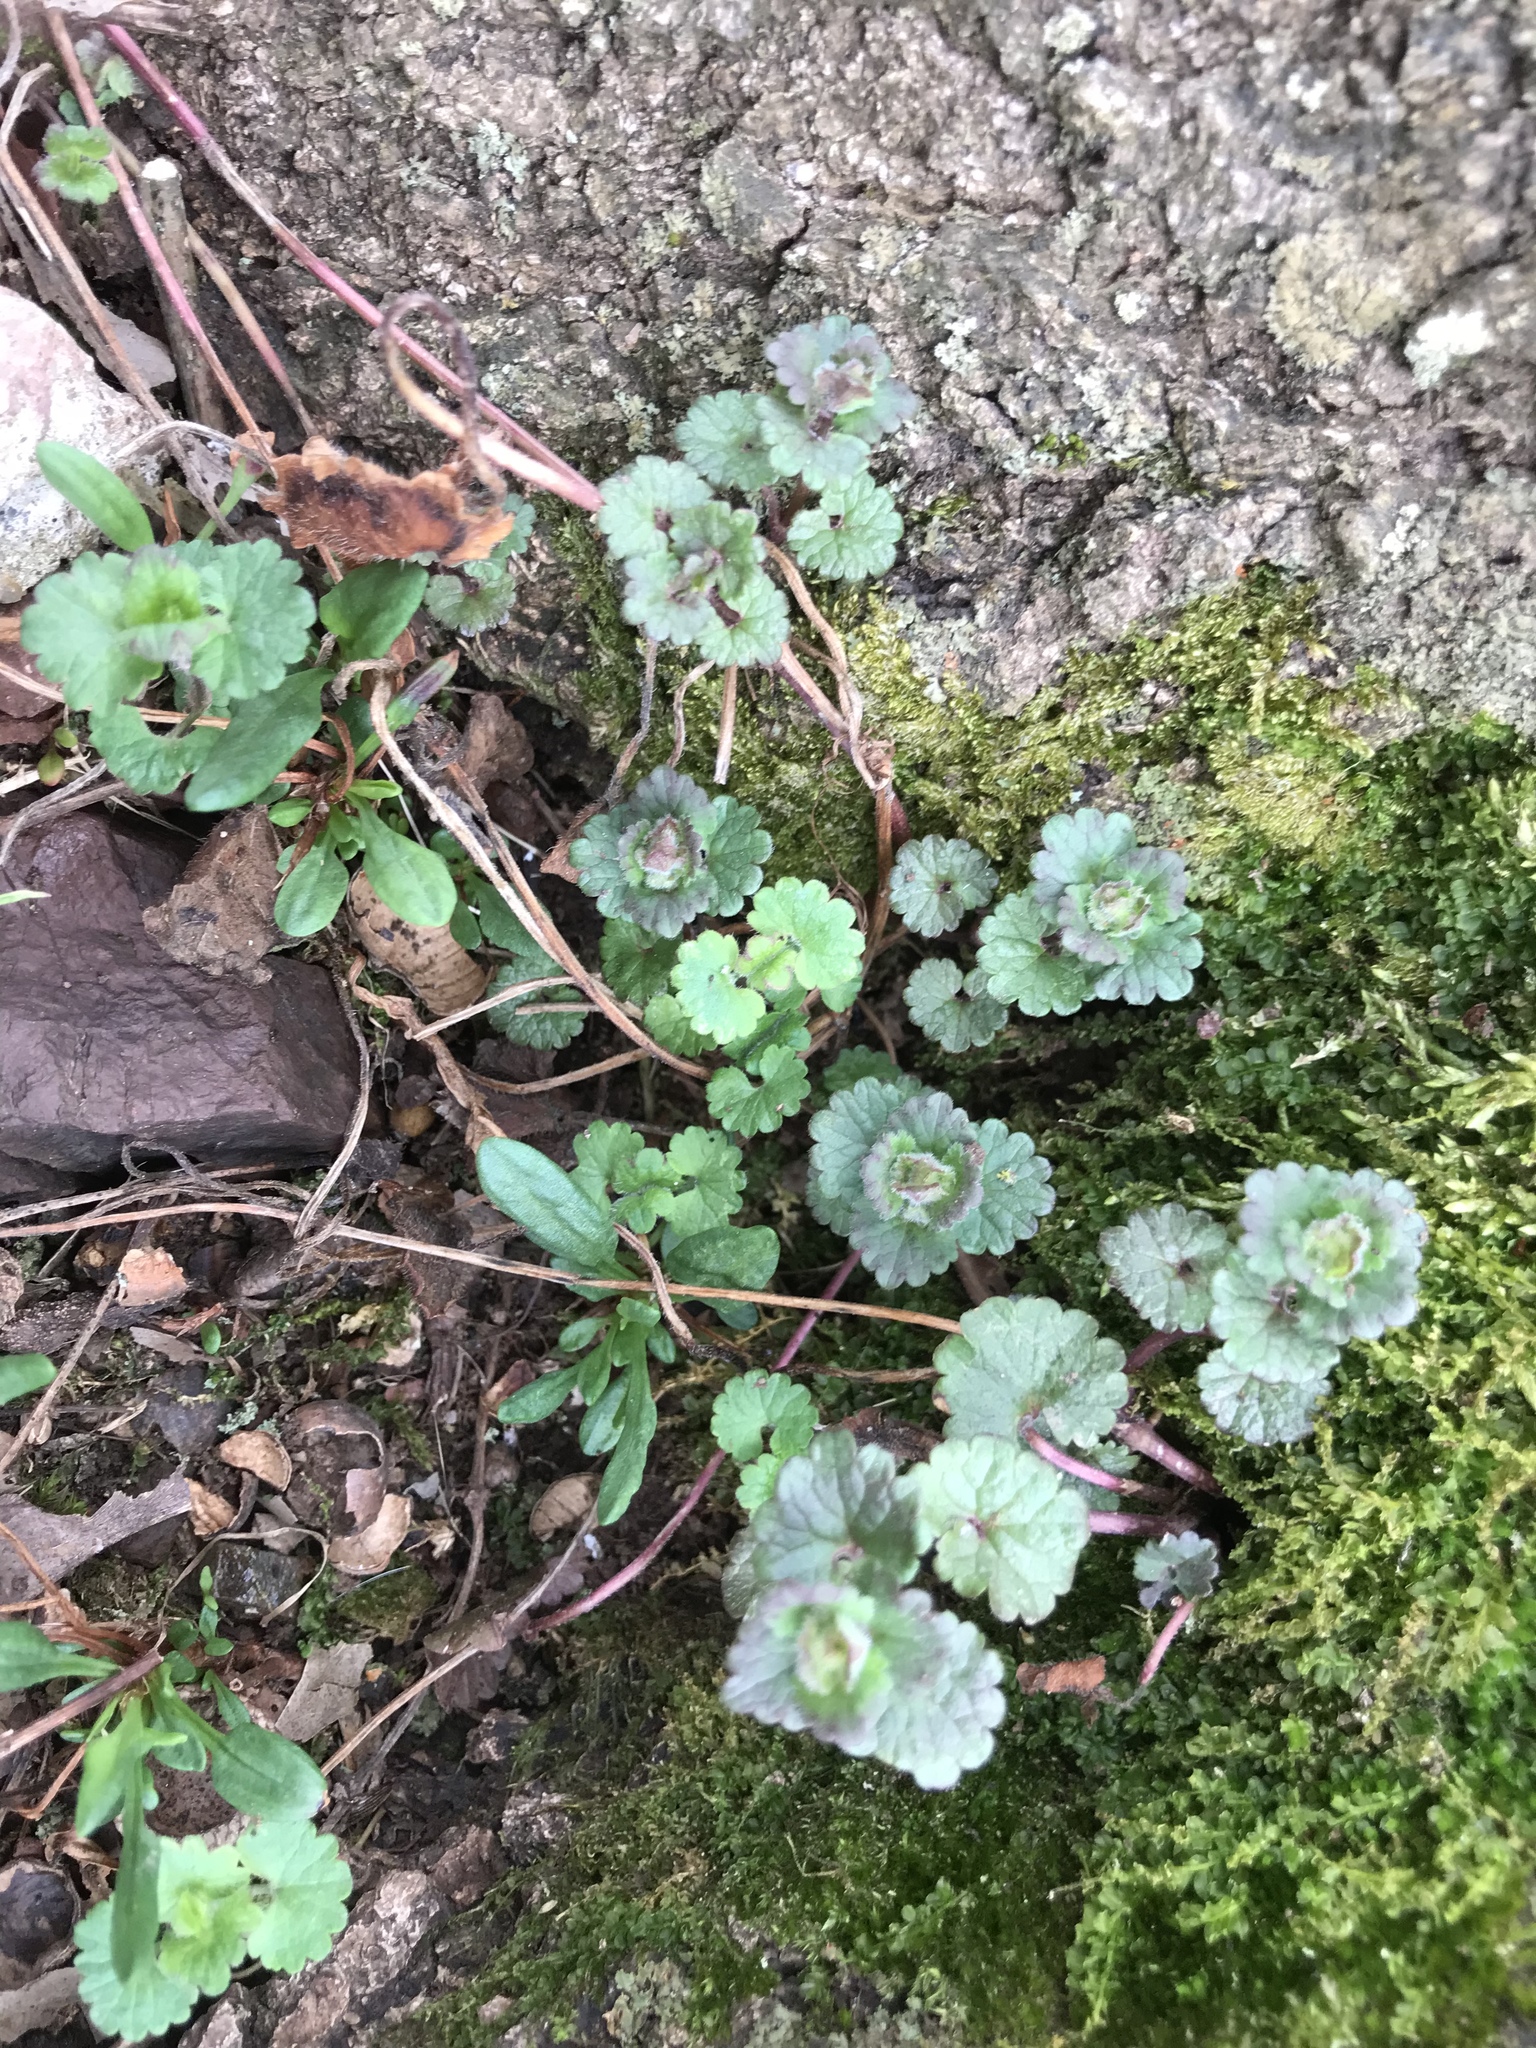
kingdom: Plantae
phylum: Tracheophyta
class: Magnoliopsida
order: Lamiales
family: Lamiaceae
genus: Glechoma
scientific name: Glechoma hederacea
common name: Ground ivy
